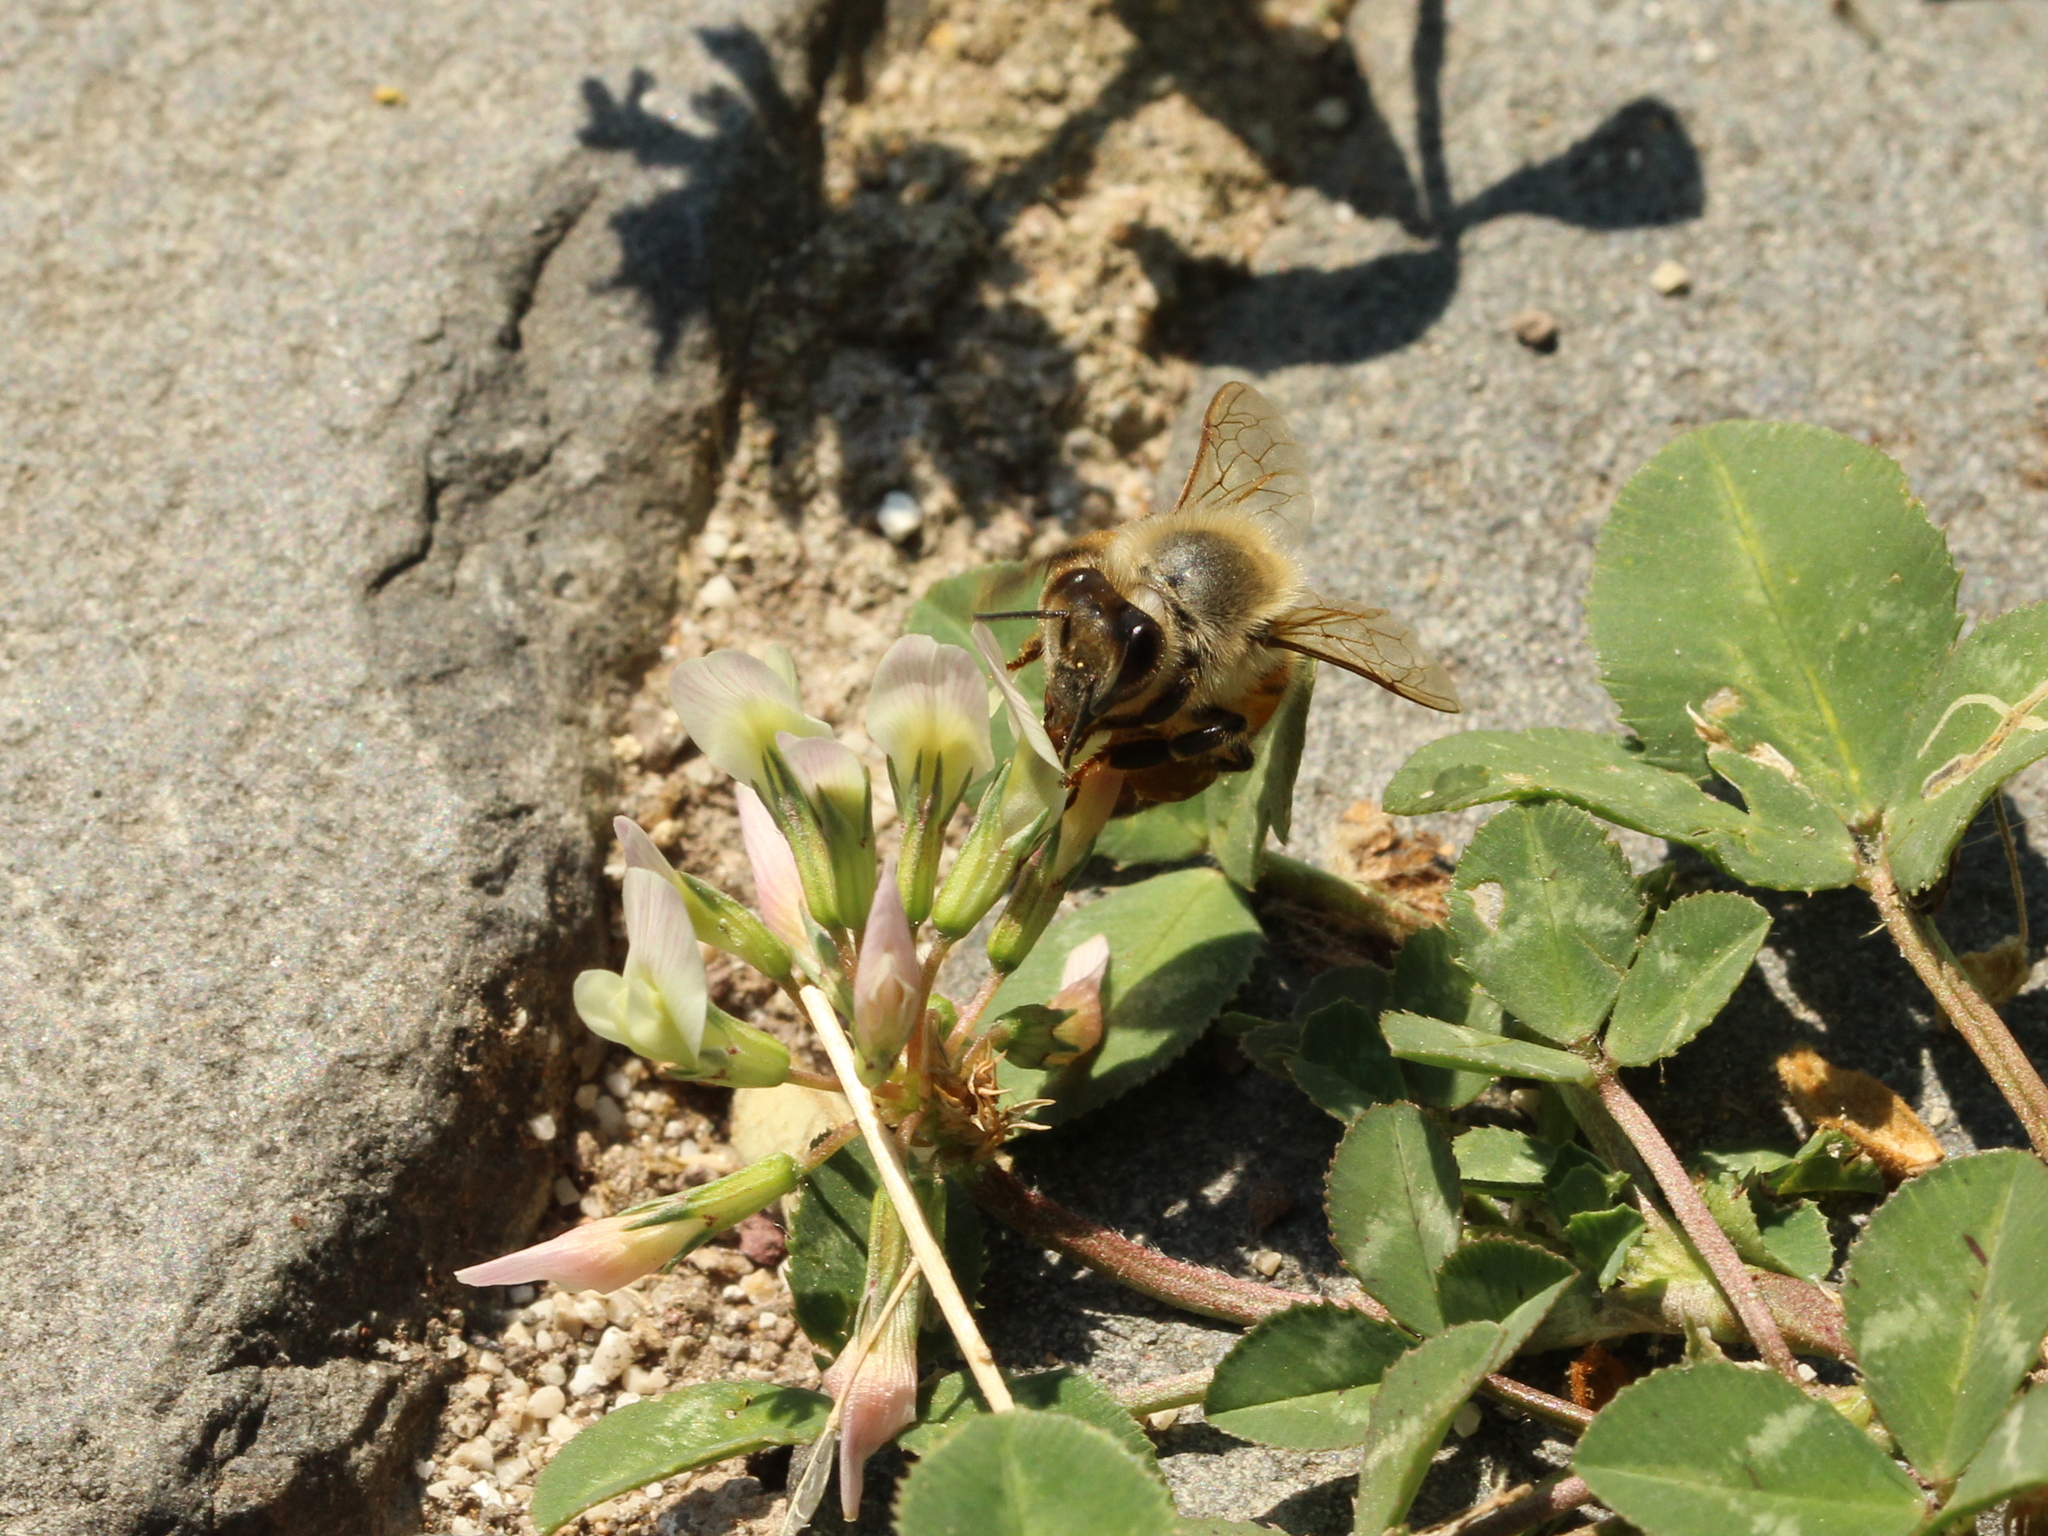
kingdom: Animalia
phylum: Arthropoda
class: Insecta
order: Hymenoptera
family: Apidae
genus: Apis
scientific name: Apis mellifera
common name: Honey bee
